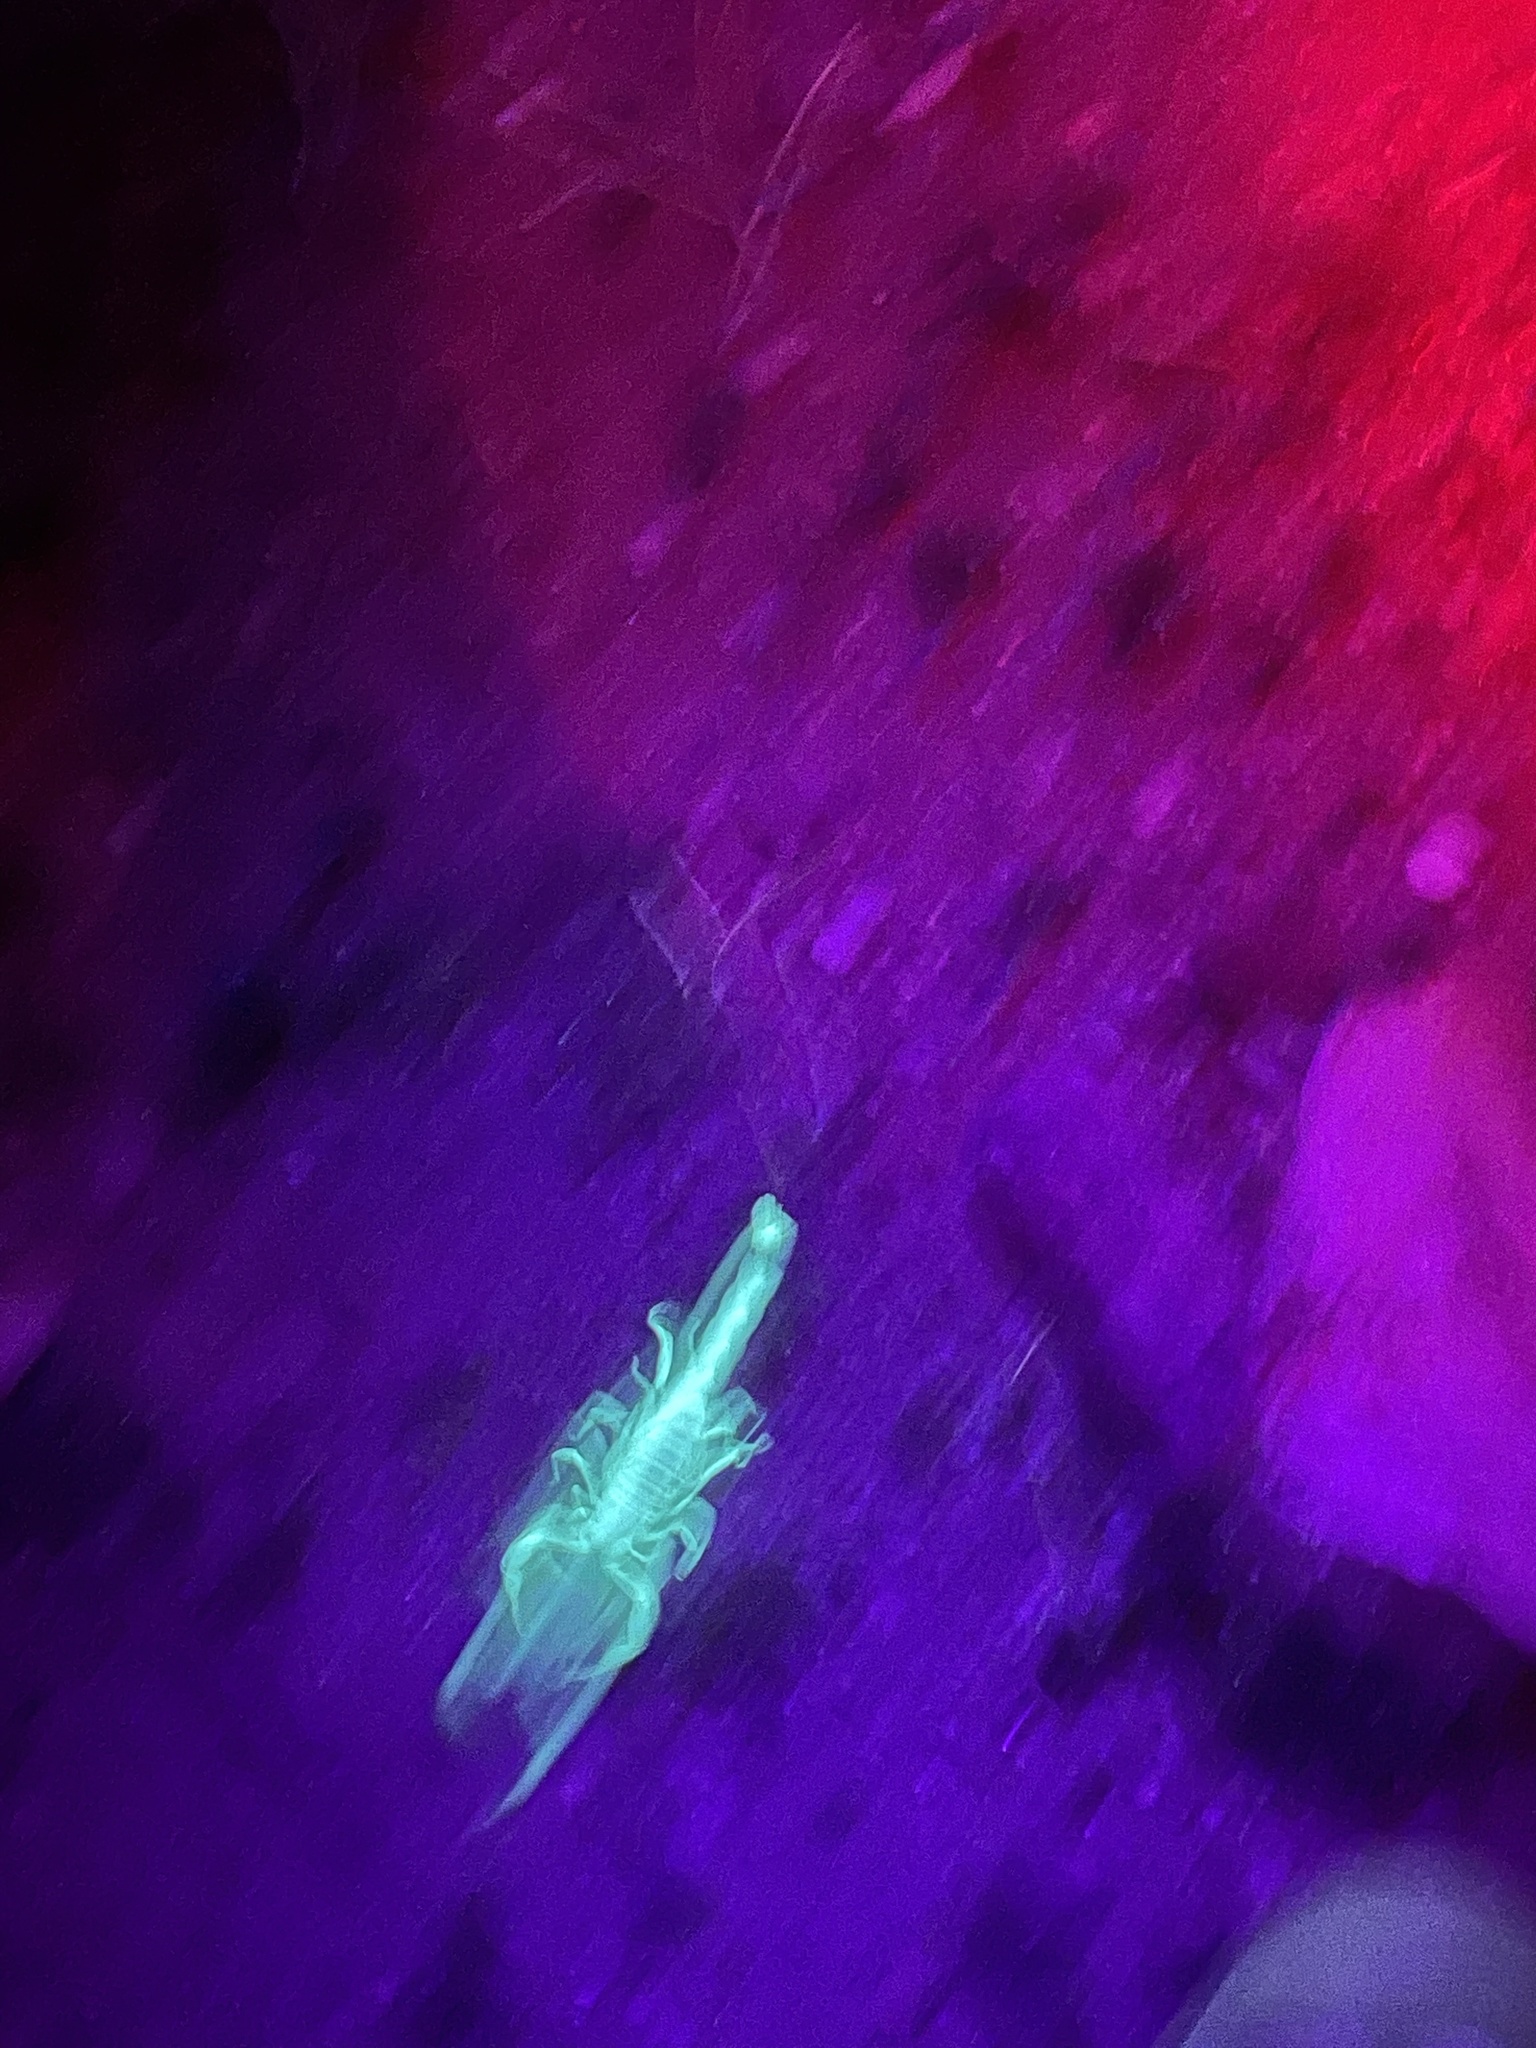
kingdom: Animalia
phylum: Arthropoda
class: Arachnida
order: Scorpiones
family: Hadruridae
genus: Hadrurus
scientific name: Hadrurus arizonensis
